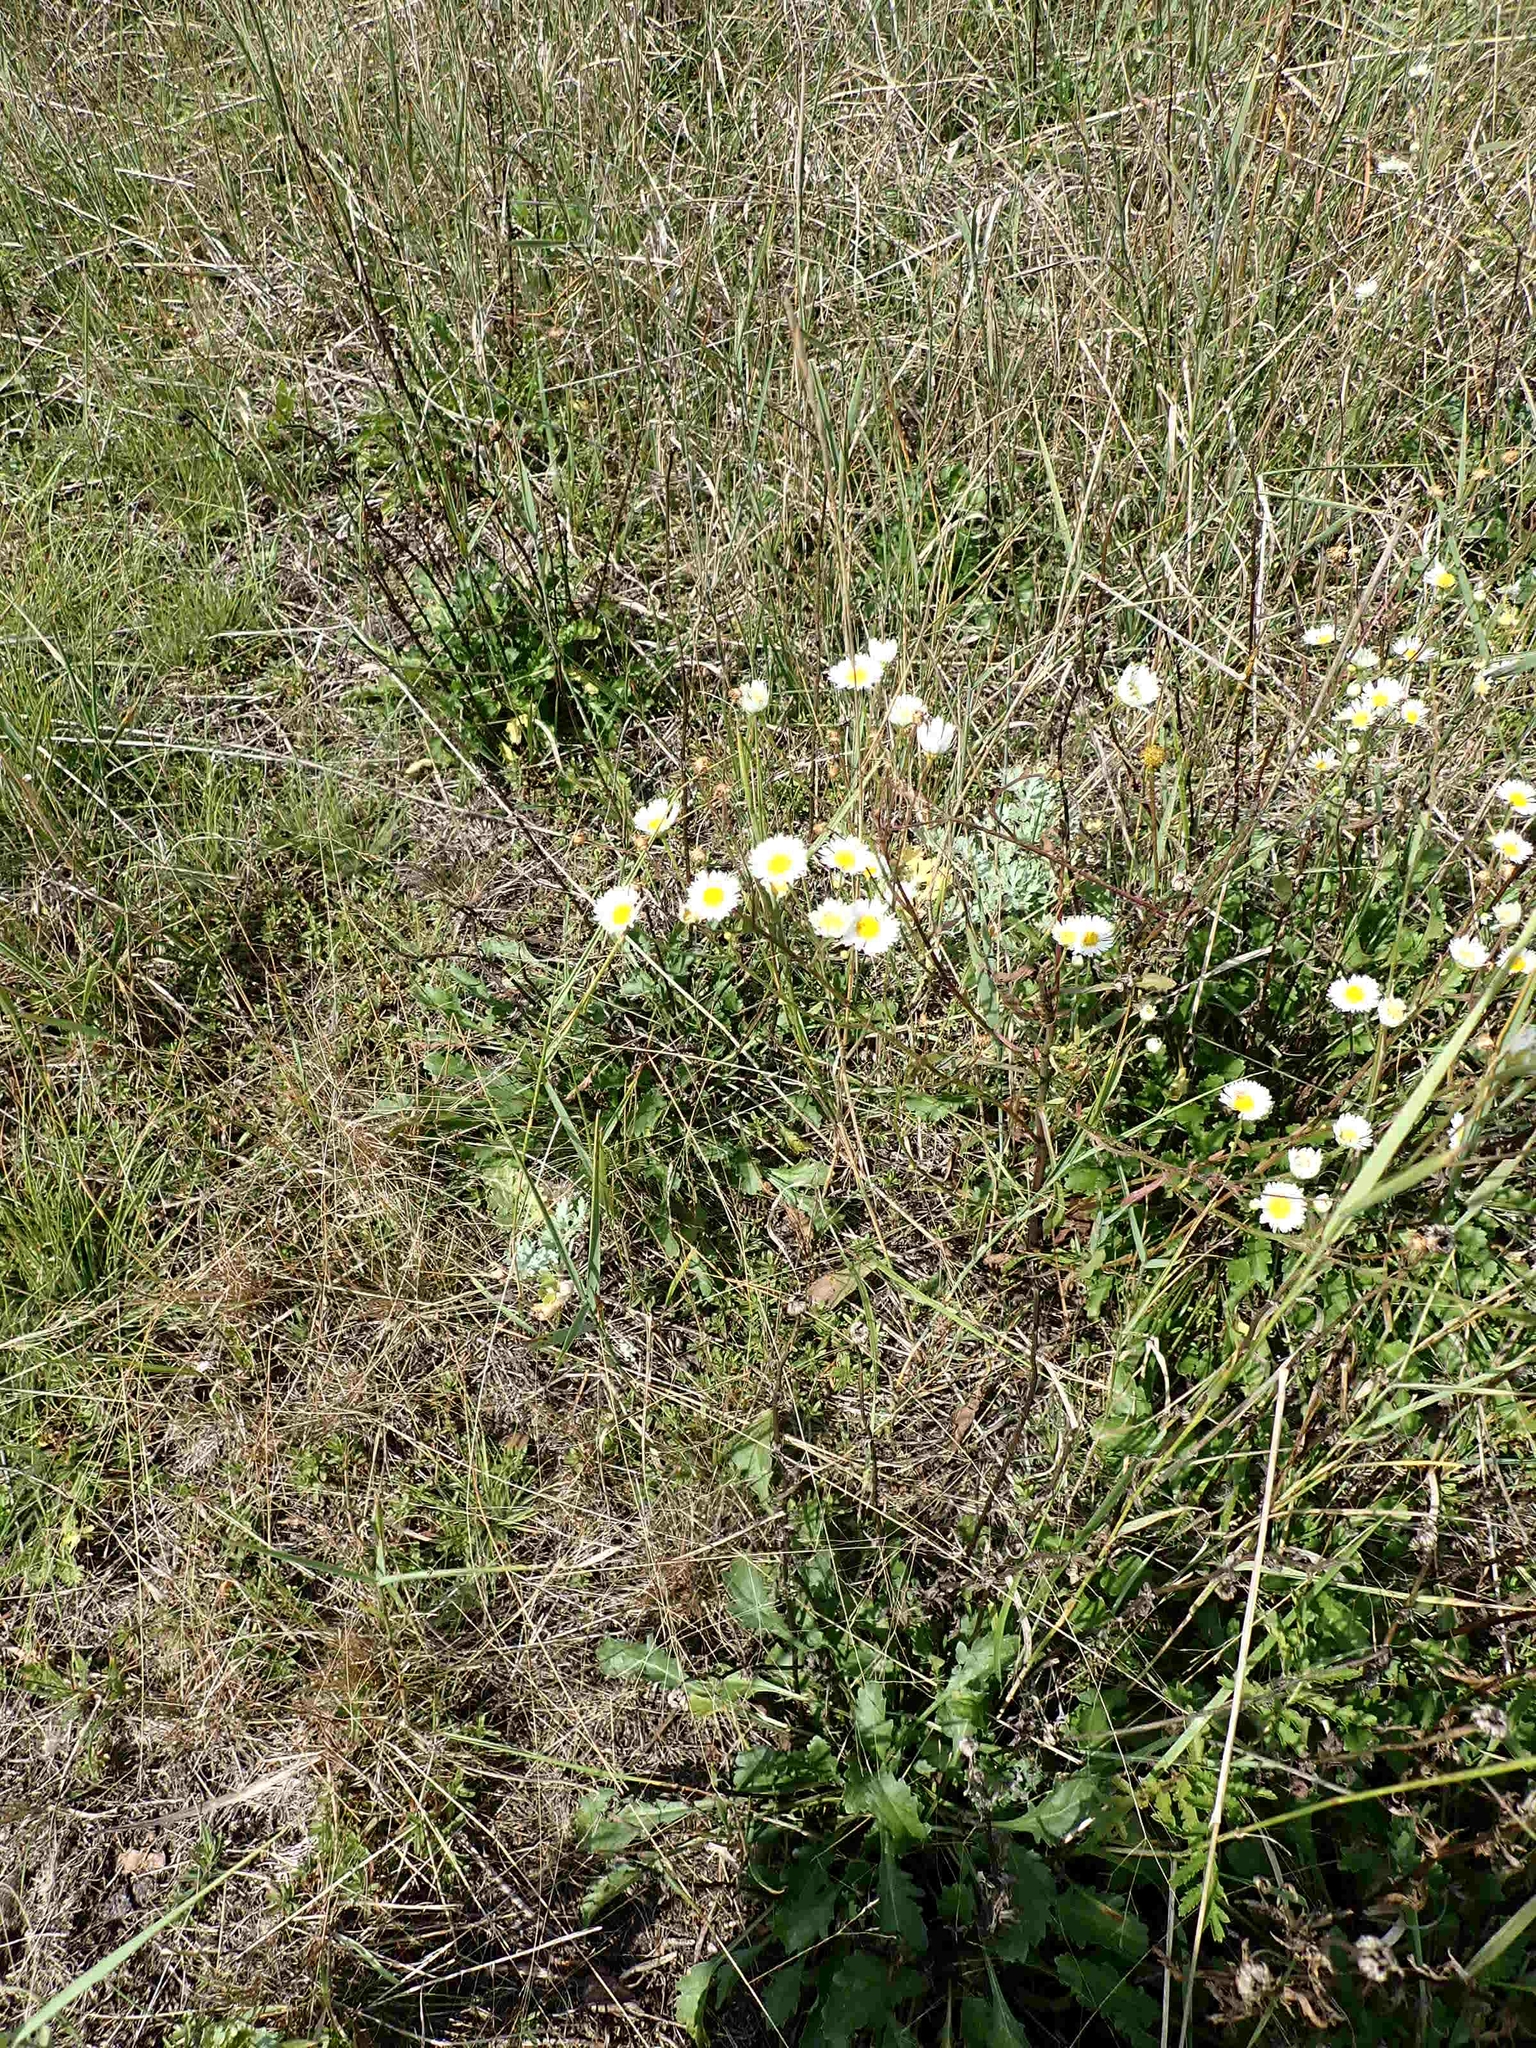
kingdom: Plantae
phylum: Tracheophyta
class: Magnoliopsida
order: Asterales
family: Asteraceae
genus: Erigeron
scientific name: Erigeron strigosus
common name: Common eastern fleabane
